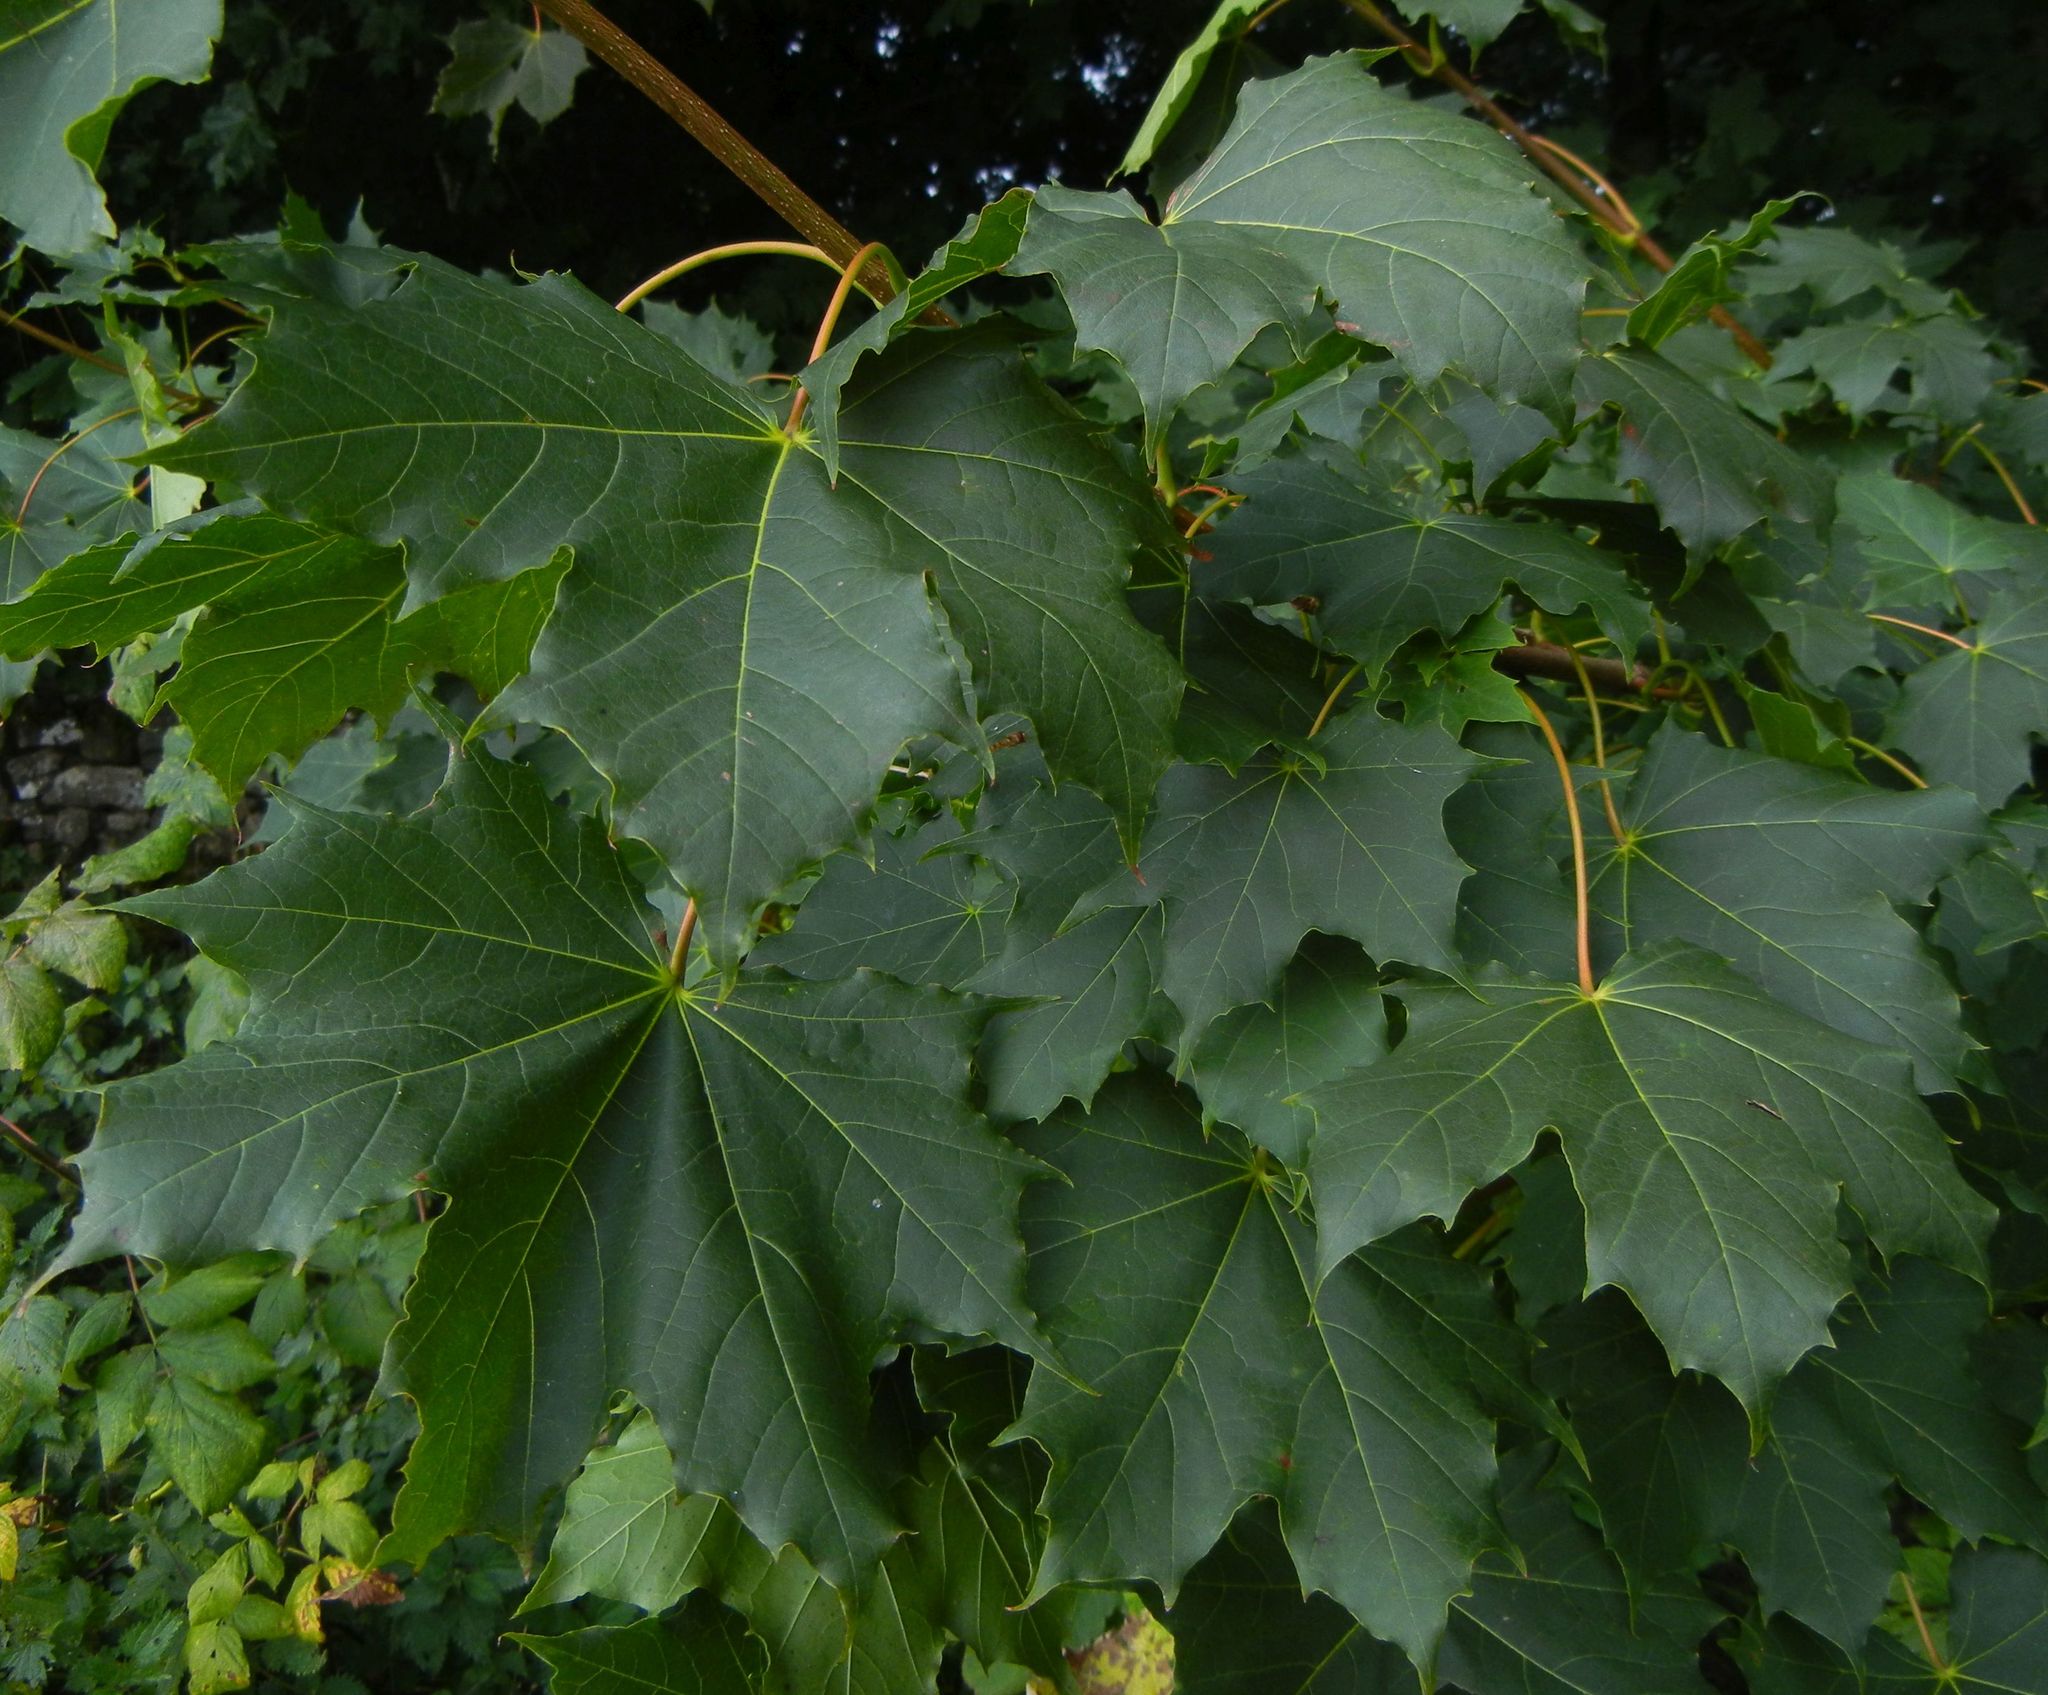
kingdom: Plantae
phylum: Tracheophyta
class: Magnoliopsida
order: Sapindales
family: Sapindaceae
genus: Acer
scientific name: Acer platanoides
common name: Norway maple
